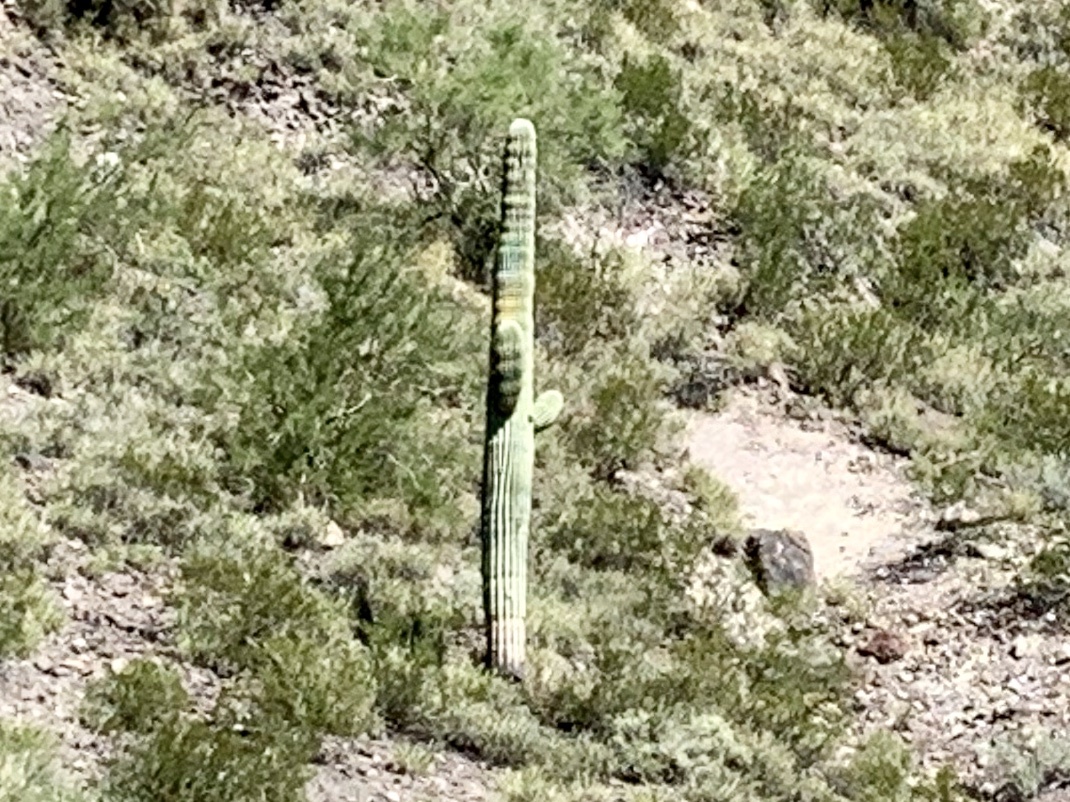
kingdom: Plantae
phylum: Tracheophyta
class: Magnoliopsida
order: Caryophyllales
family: Cactaceae
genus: Carnegiea
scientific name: Carnegiea gigantea
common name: Saguaro
